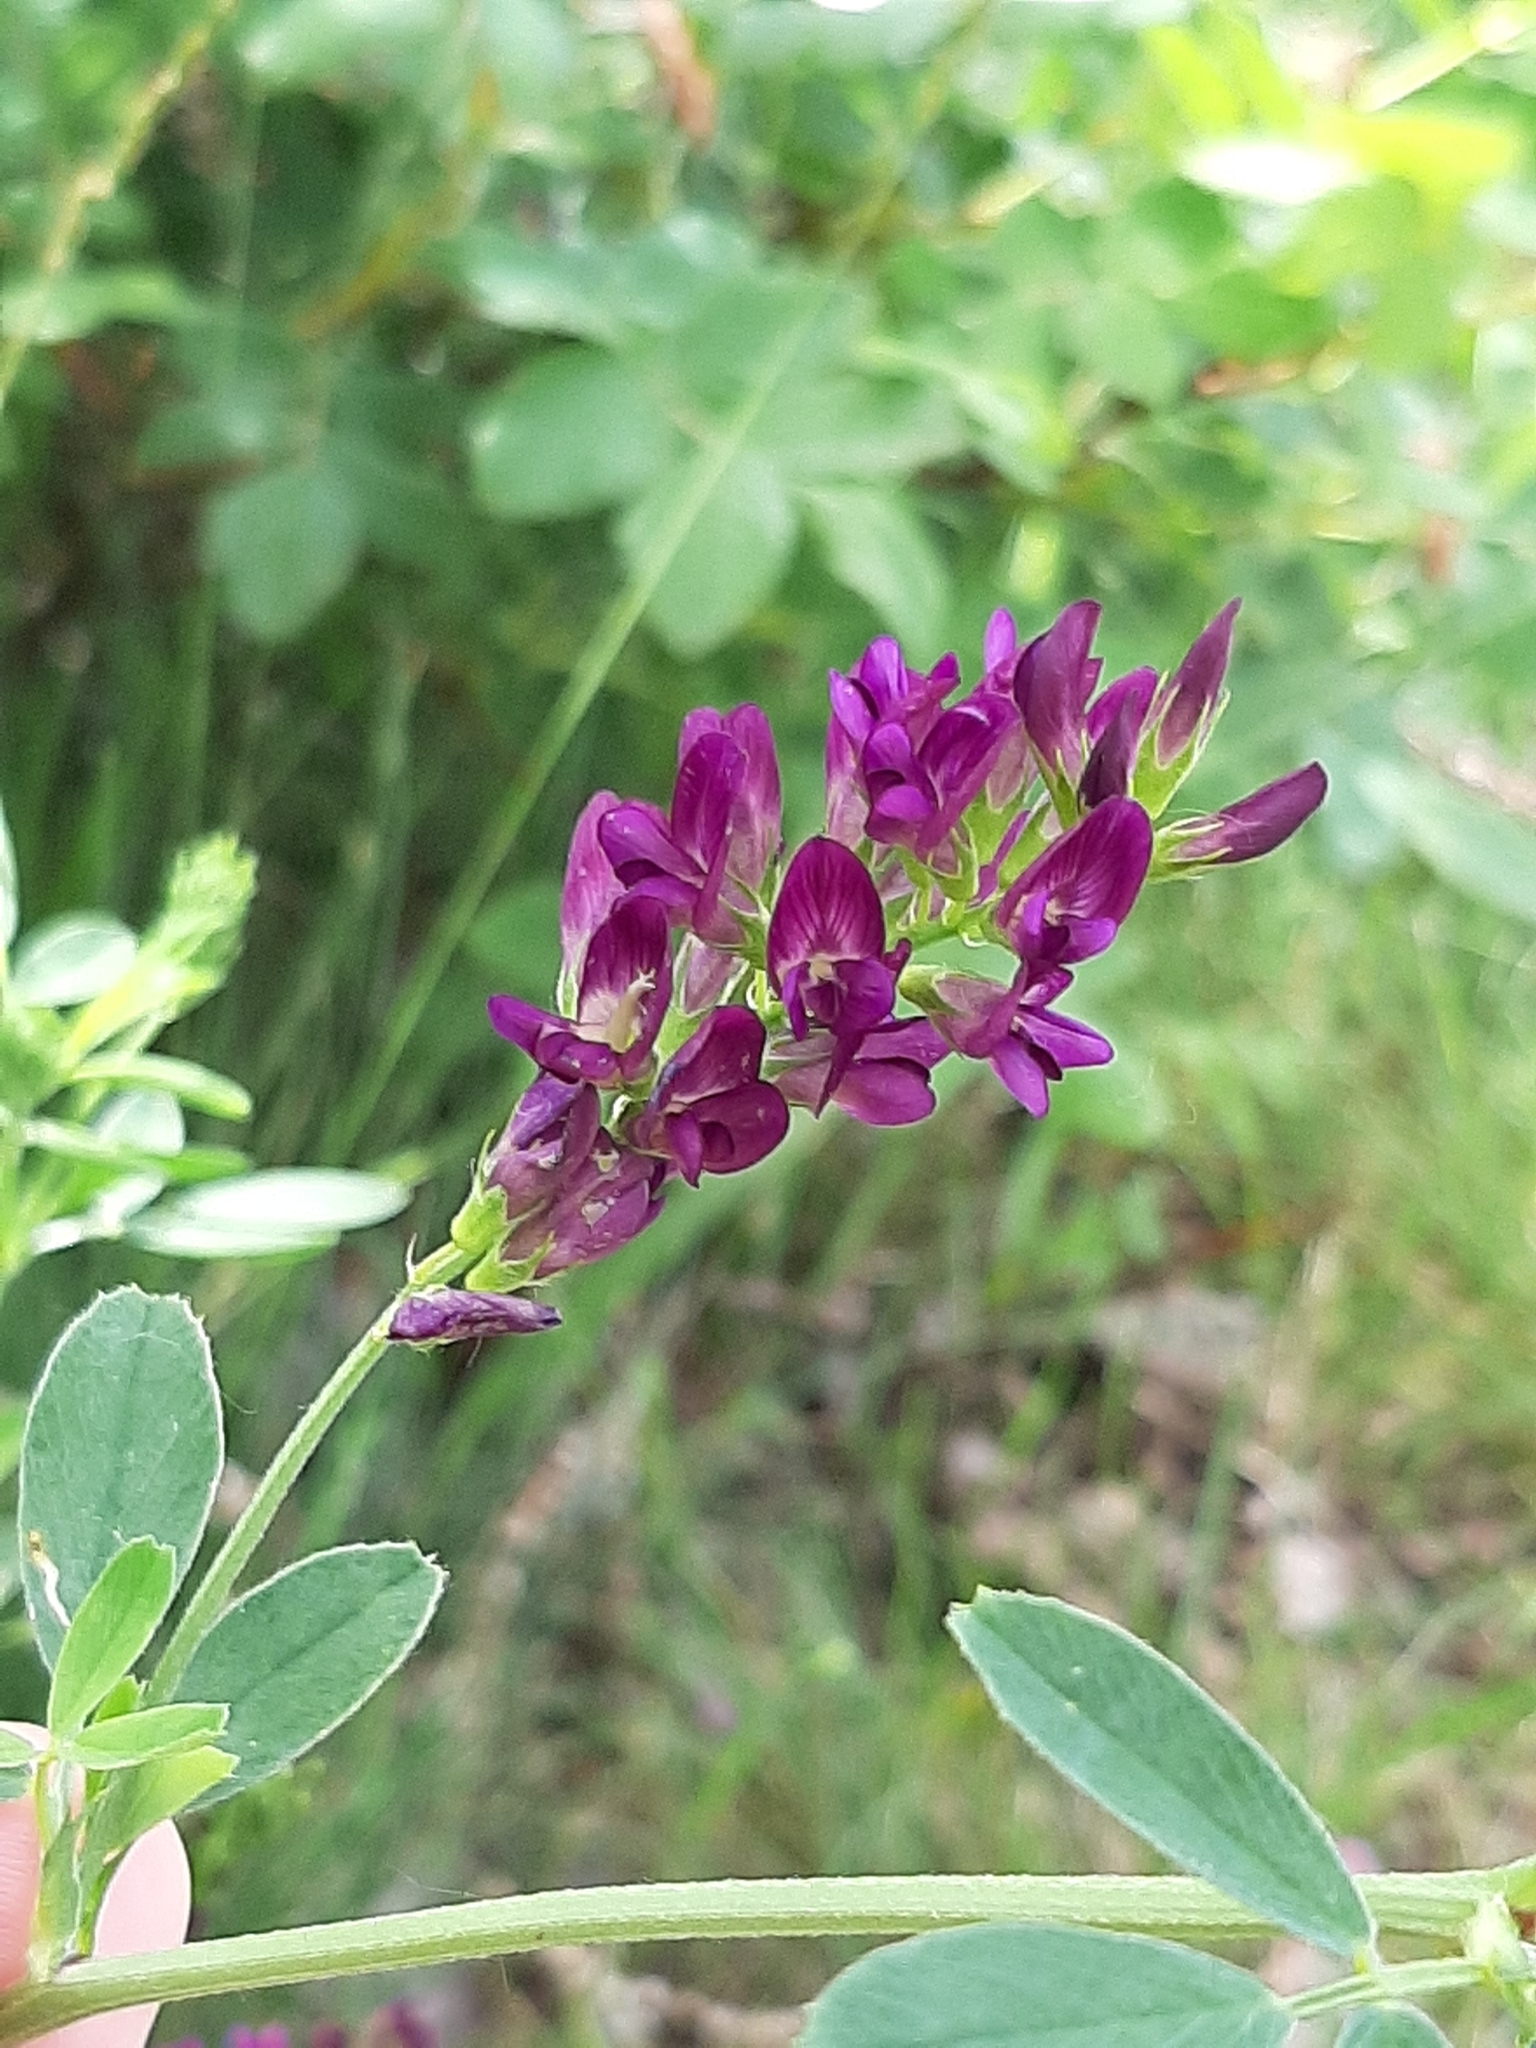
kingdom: Plantae
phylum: Tracheophyta
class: Magnoliopsida
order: Fabales
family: Fabaceae
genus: Medicago
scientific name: Medicago sativa
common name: Alfalfa
